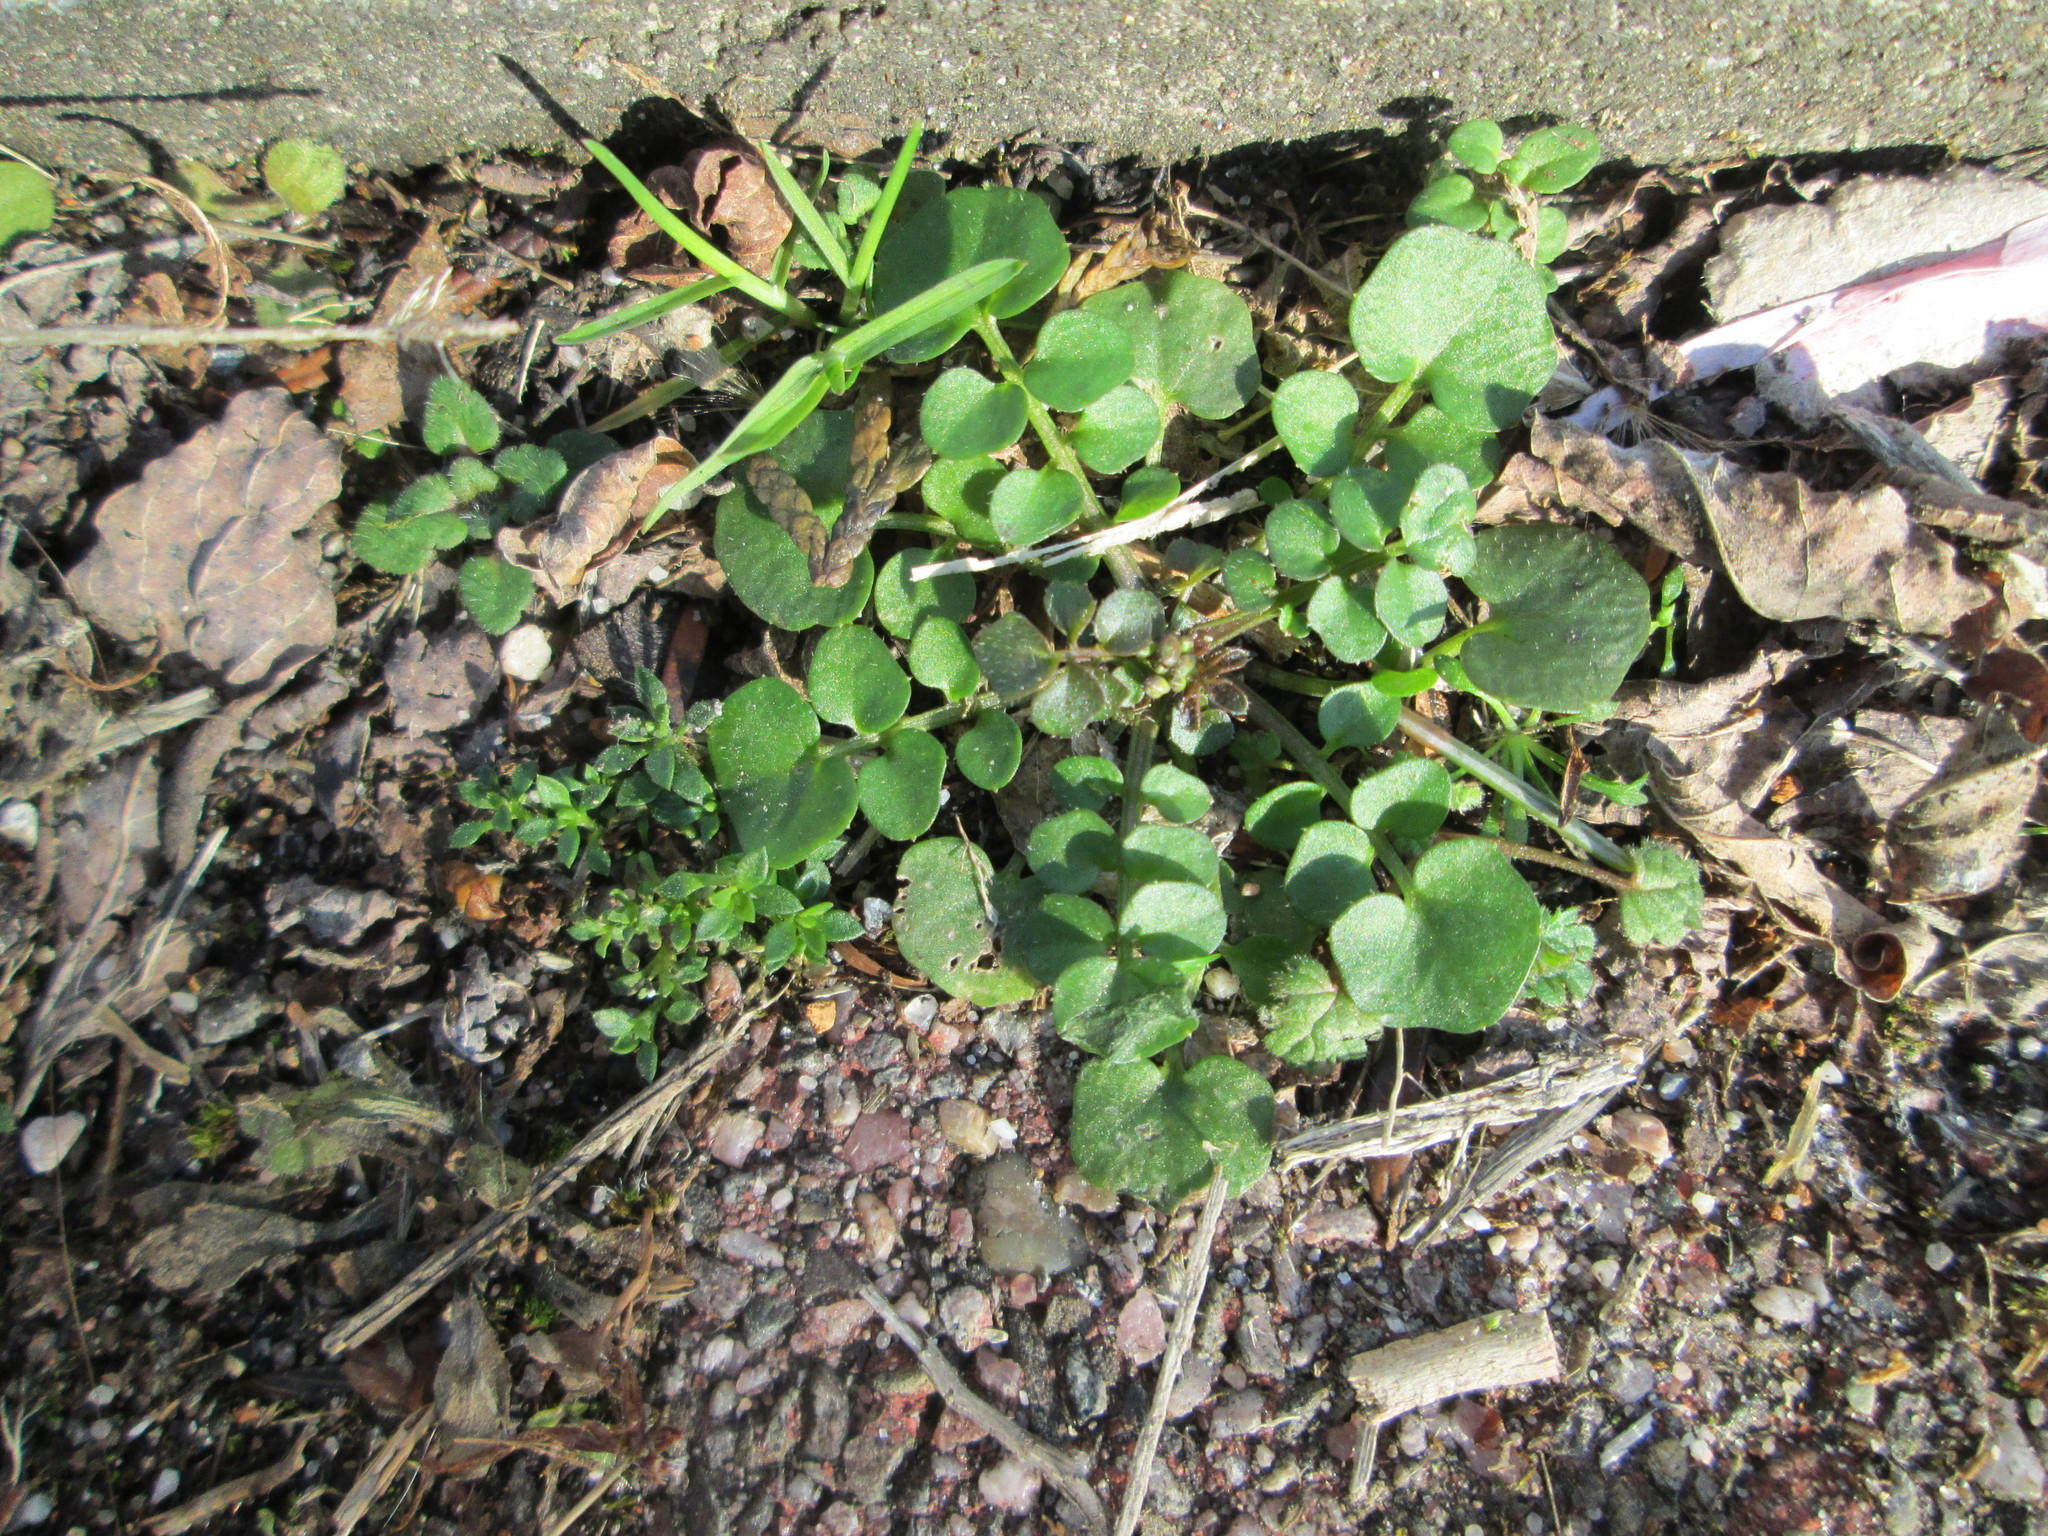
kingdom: Plantae
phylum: Tracheophyta
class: Magnoliopsida
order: Brassicales
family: Brassicaceae
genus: Cardamine
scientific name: Cardamine hirsuta
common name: Hairy bittercress
